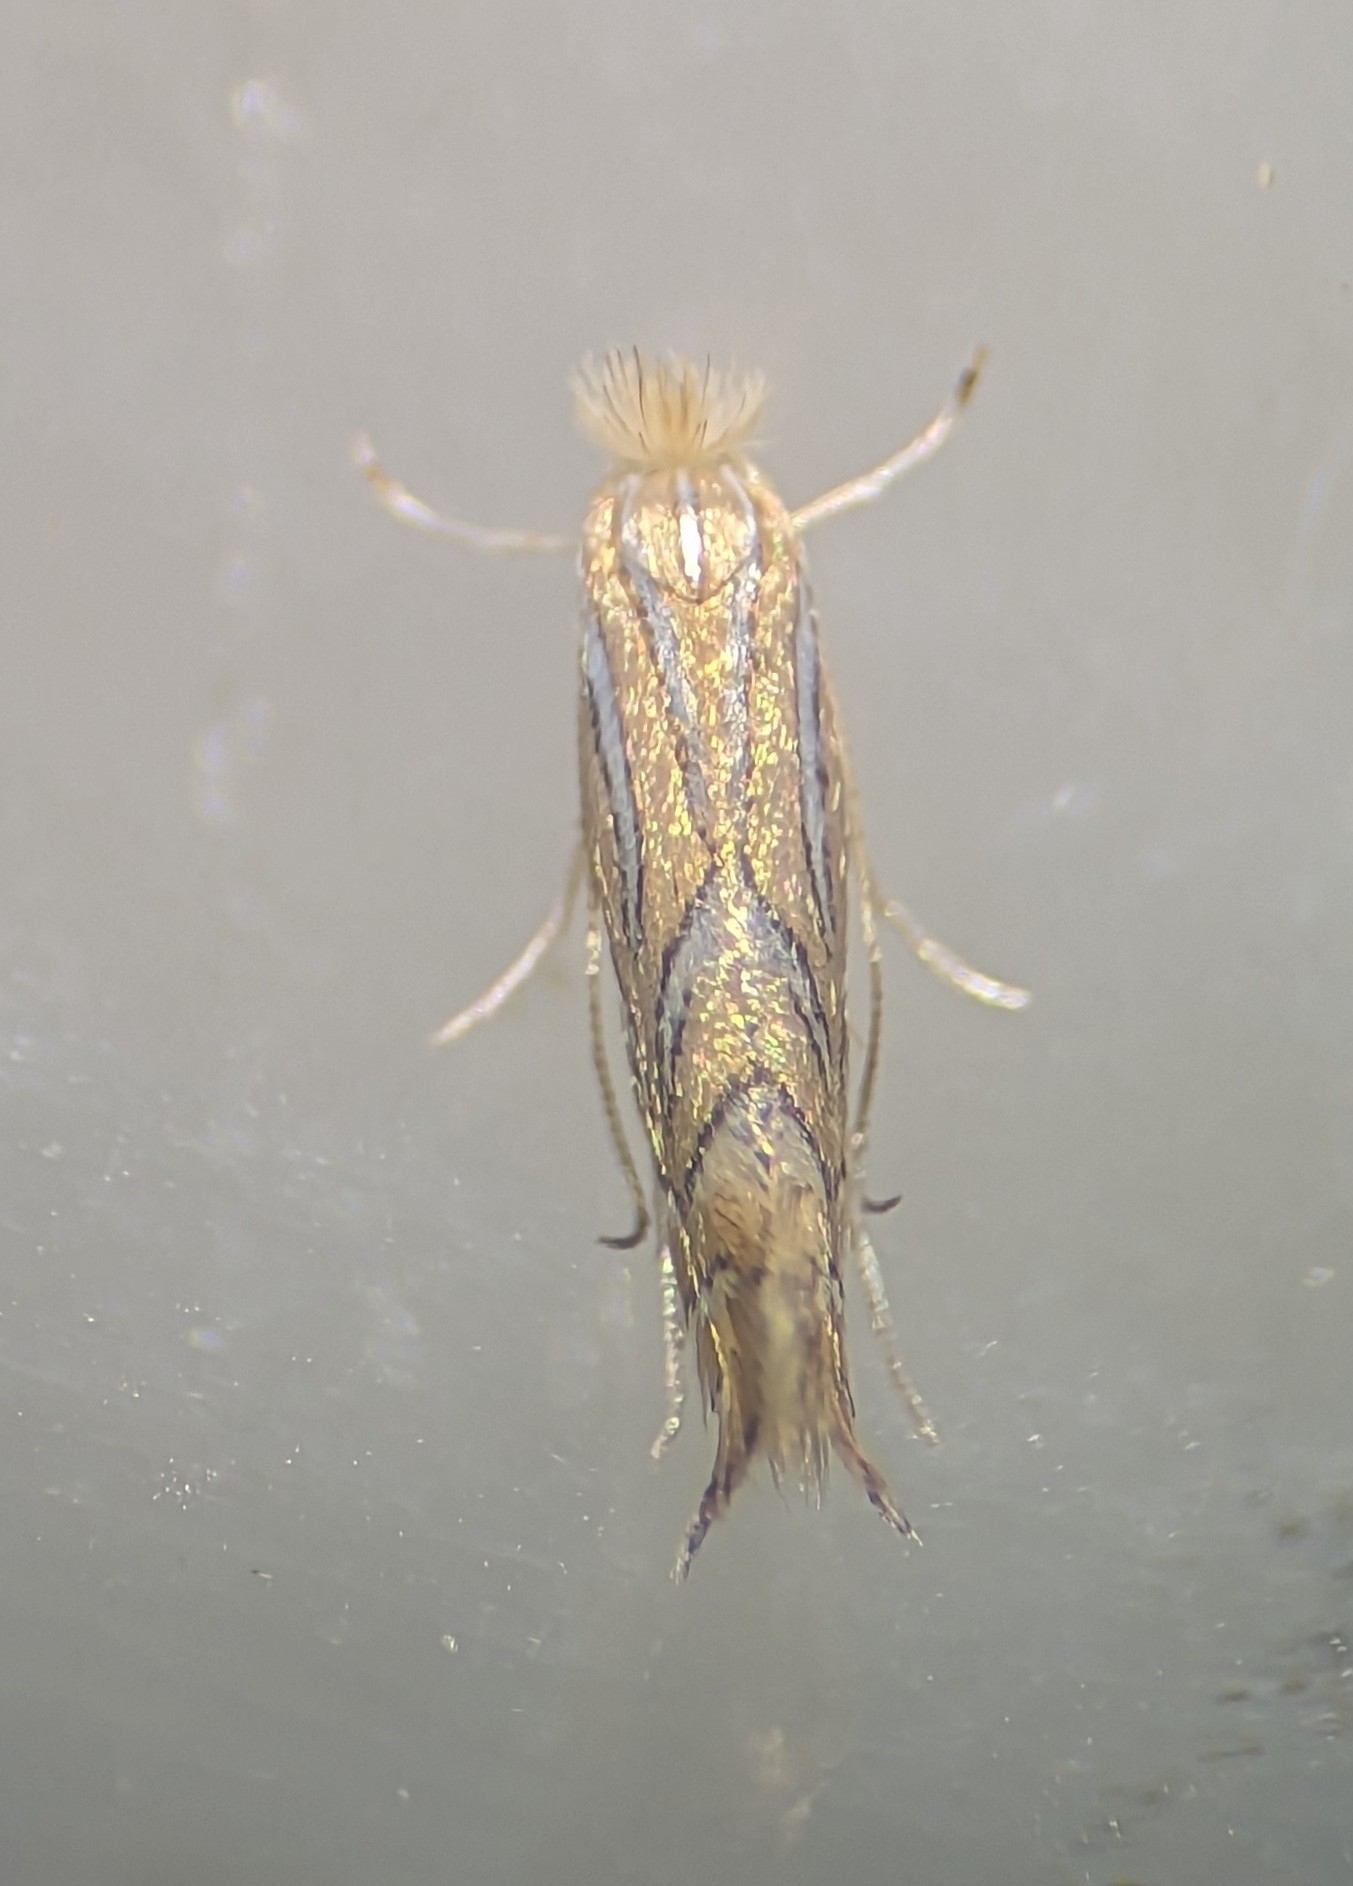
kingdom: Animalia
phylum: Arthropoda
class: Insecta
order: Lepidoptera
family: Gracillariidae
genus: Phyllonorycter
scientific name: Phyllonorycter platani
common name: London midget
